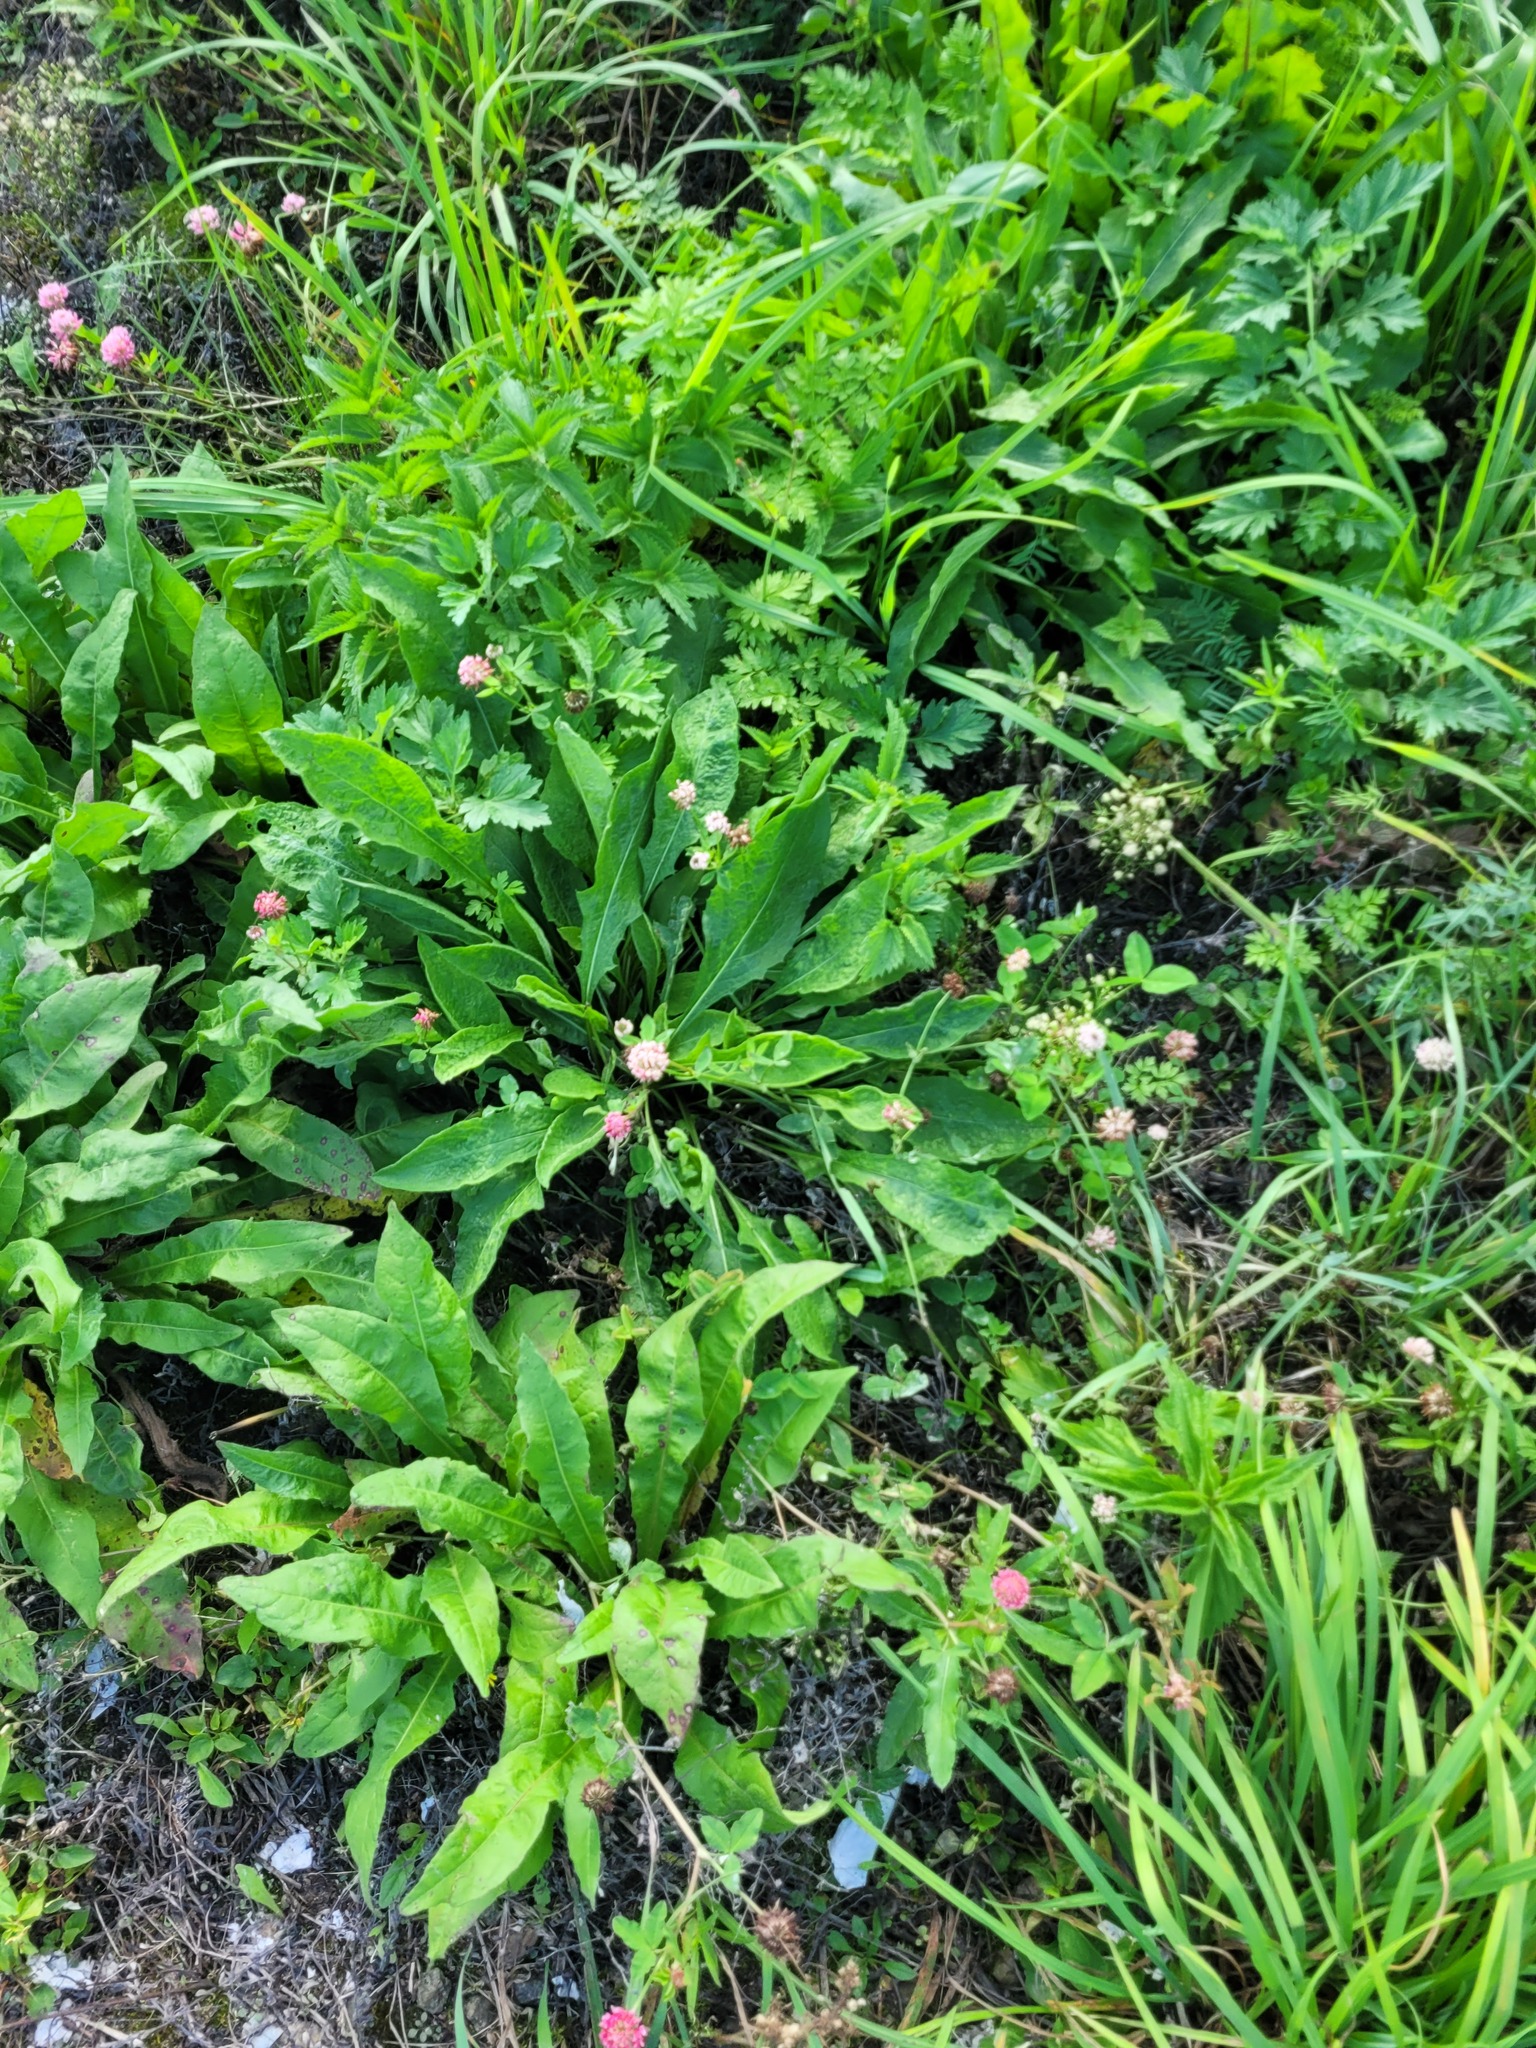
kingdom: Plantae
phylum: Tracheophyta
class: Magnoliopsida
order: Fabales
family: Fabaceae
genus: Trifolium
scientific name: Trifolium hybridum
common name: Alsike clover
